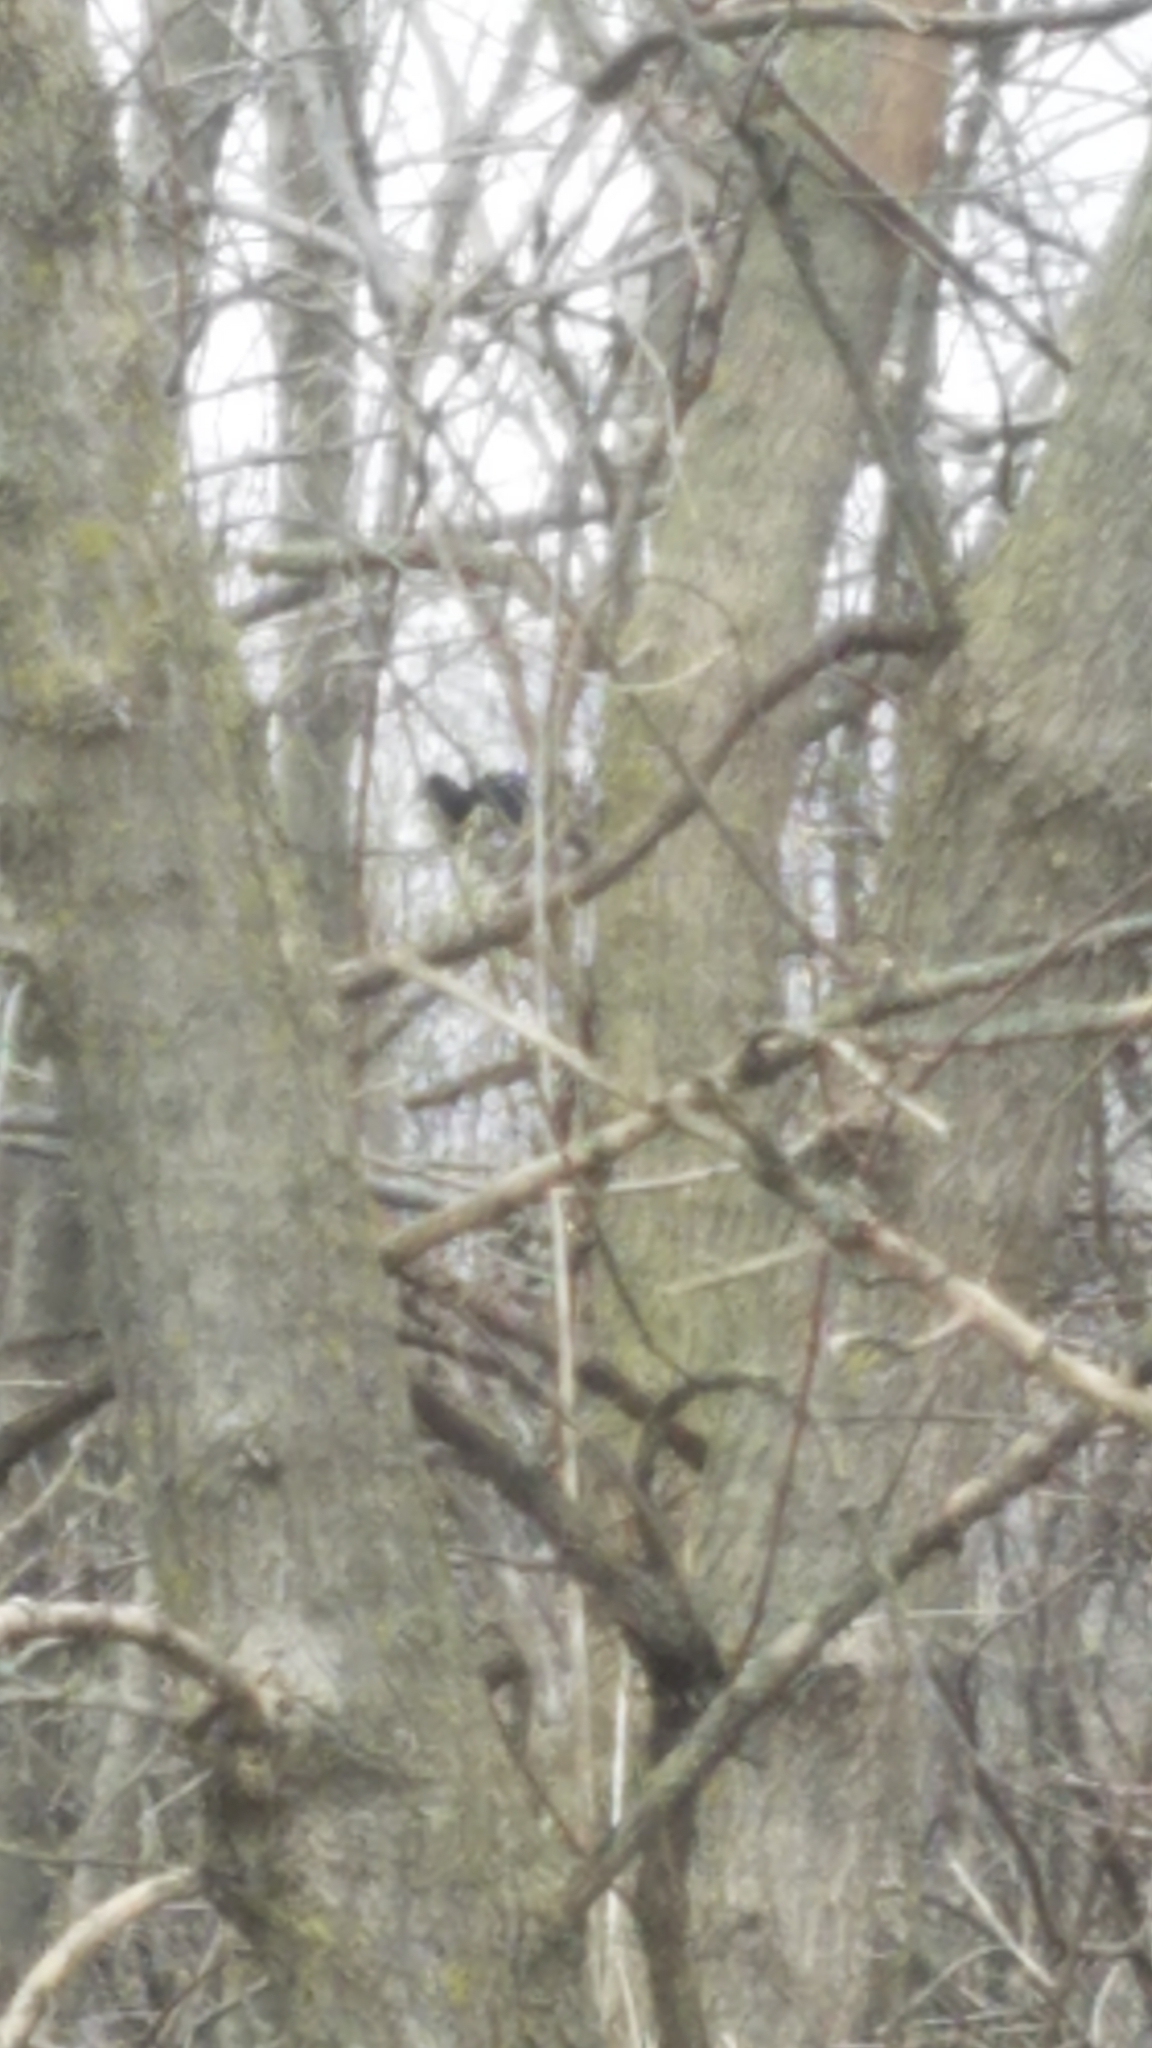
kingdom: Animalia
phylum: Chordata
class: Aves
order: Passeriformes
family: Corvidae
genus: Corvus
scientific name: Corvus brachyrhynchos
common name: American crow
